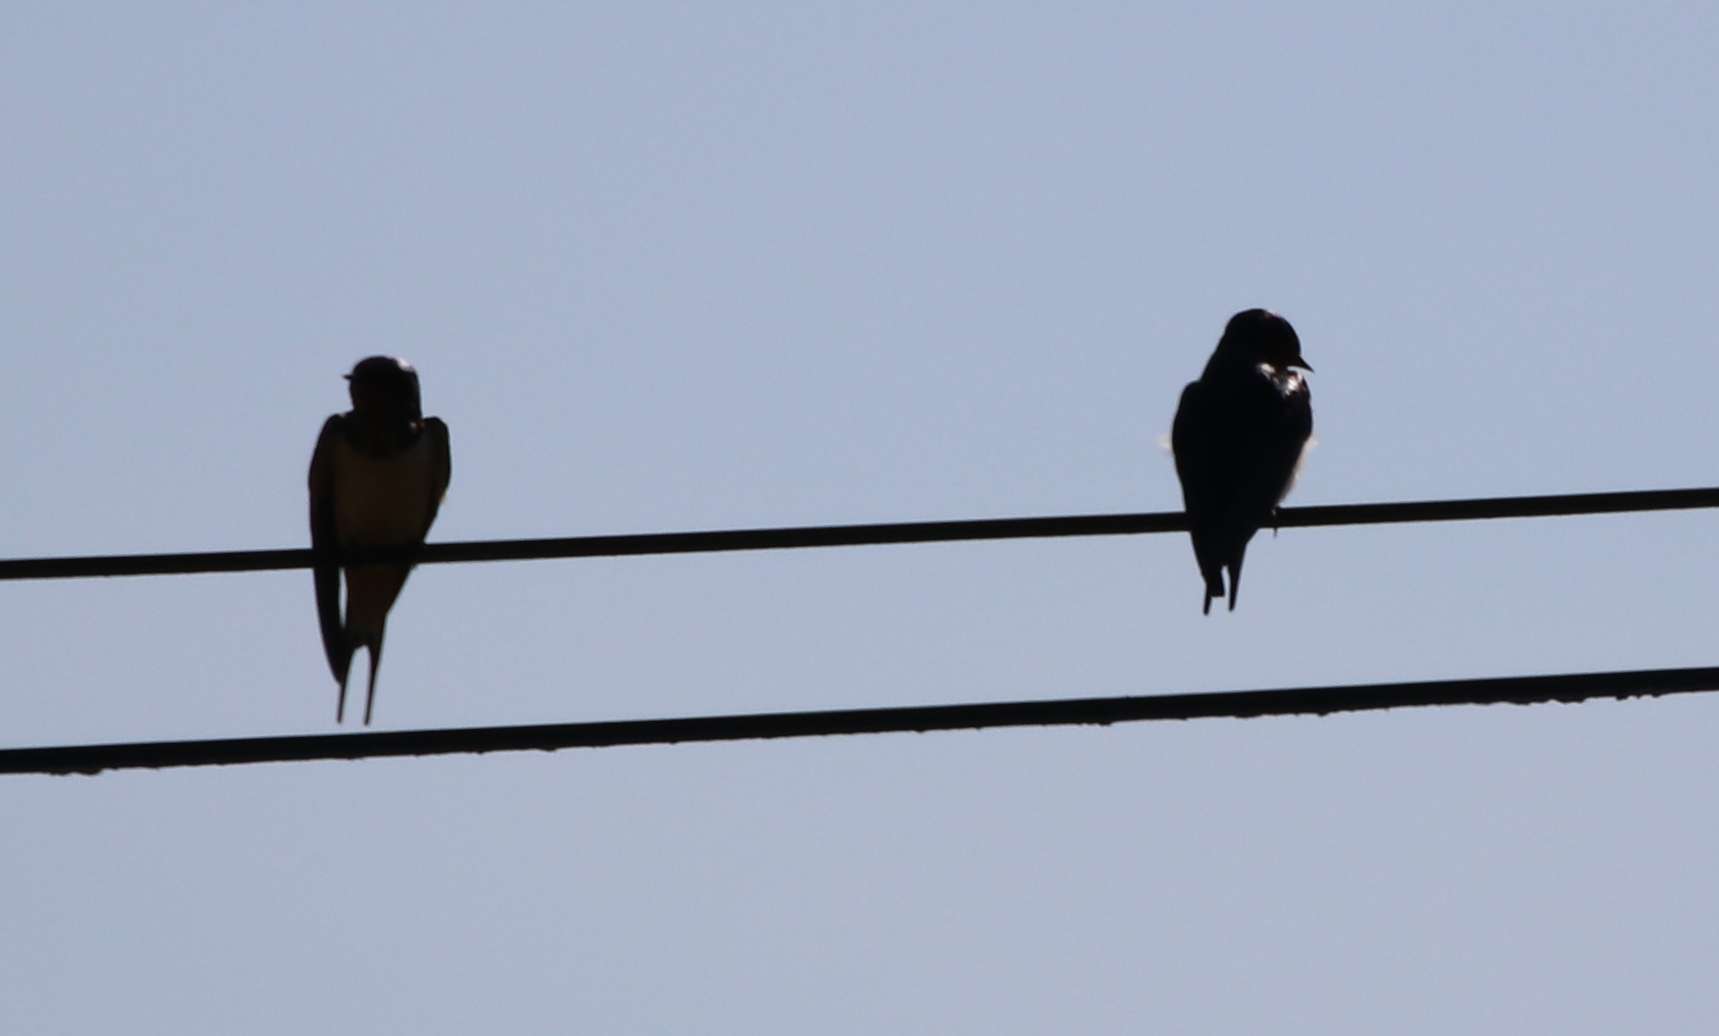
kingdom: Animalia
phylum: Chordata
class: Aves
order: Passeriformes
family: Hirundinidae
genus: Hirundo
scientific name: Hirundo rustica
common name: Barn swallow
